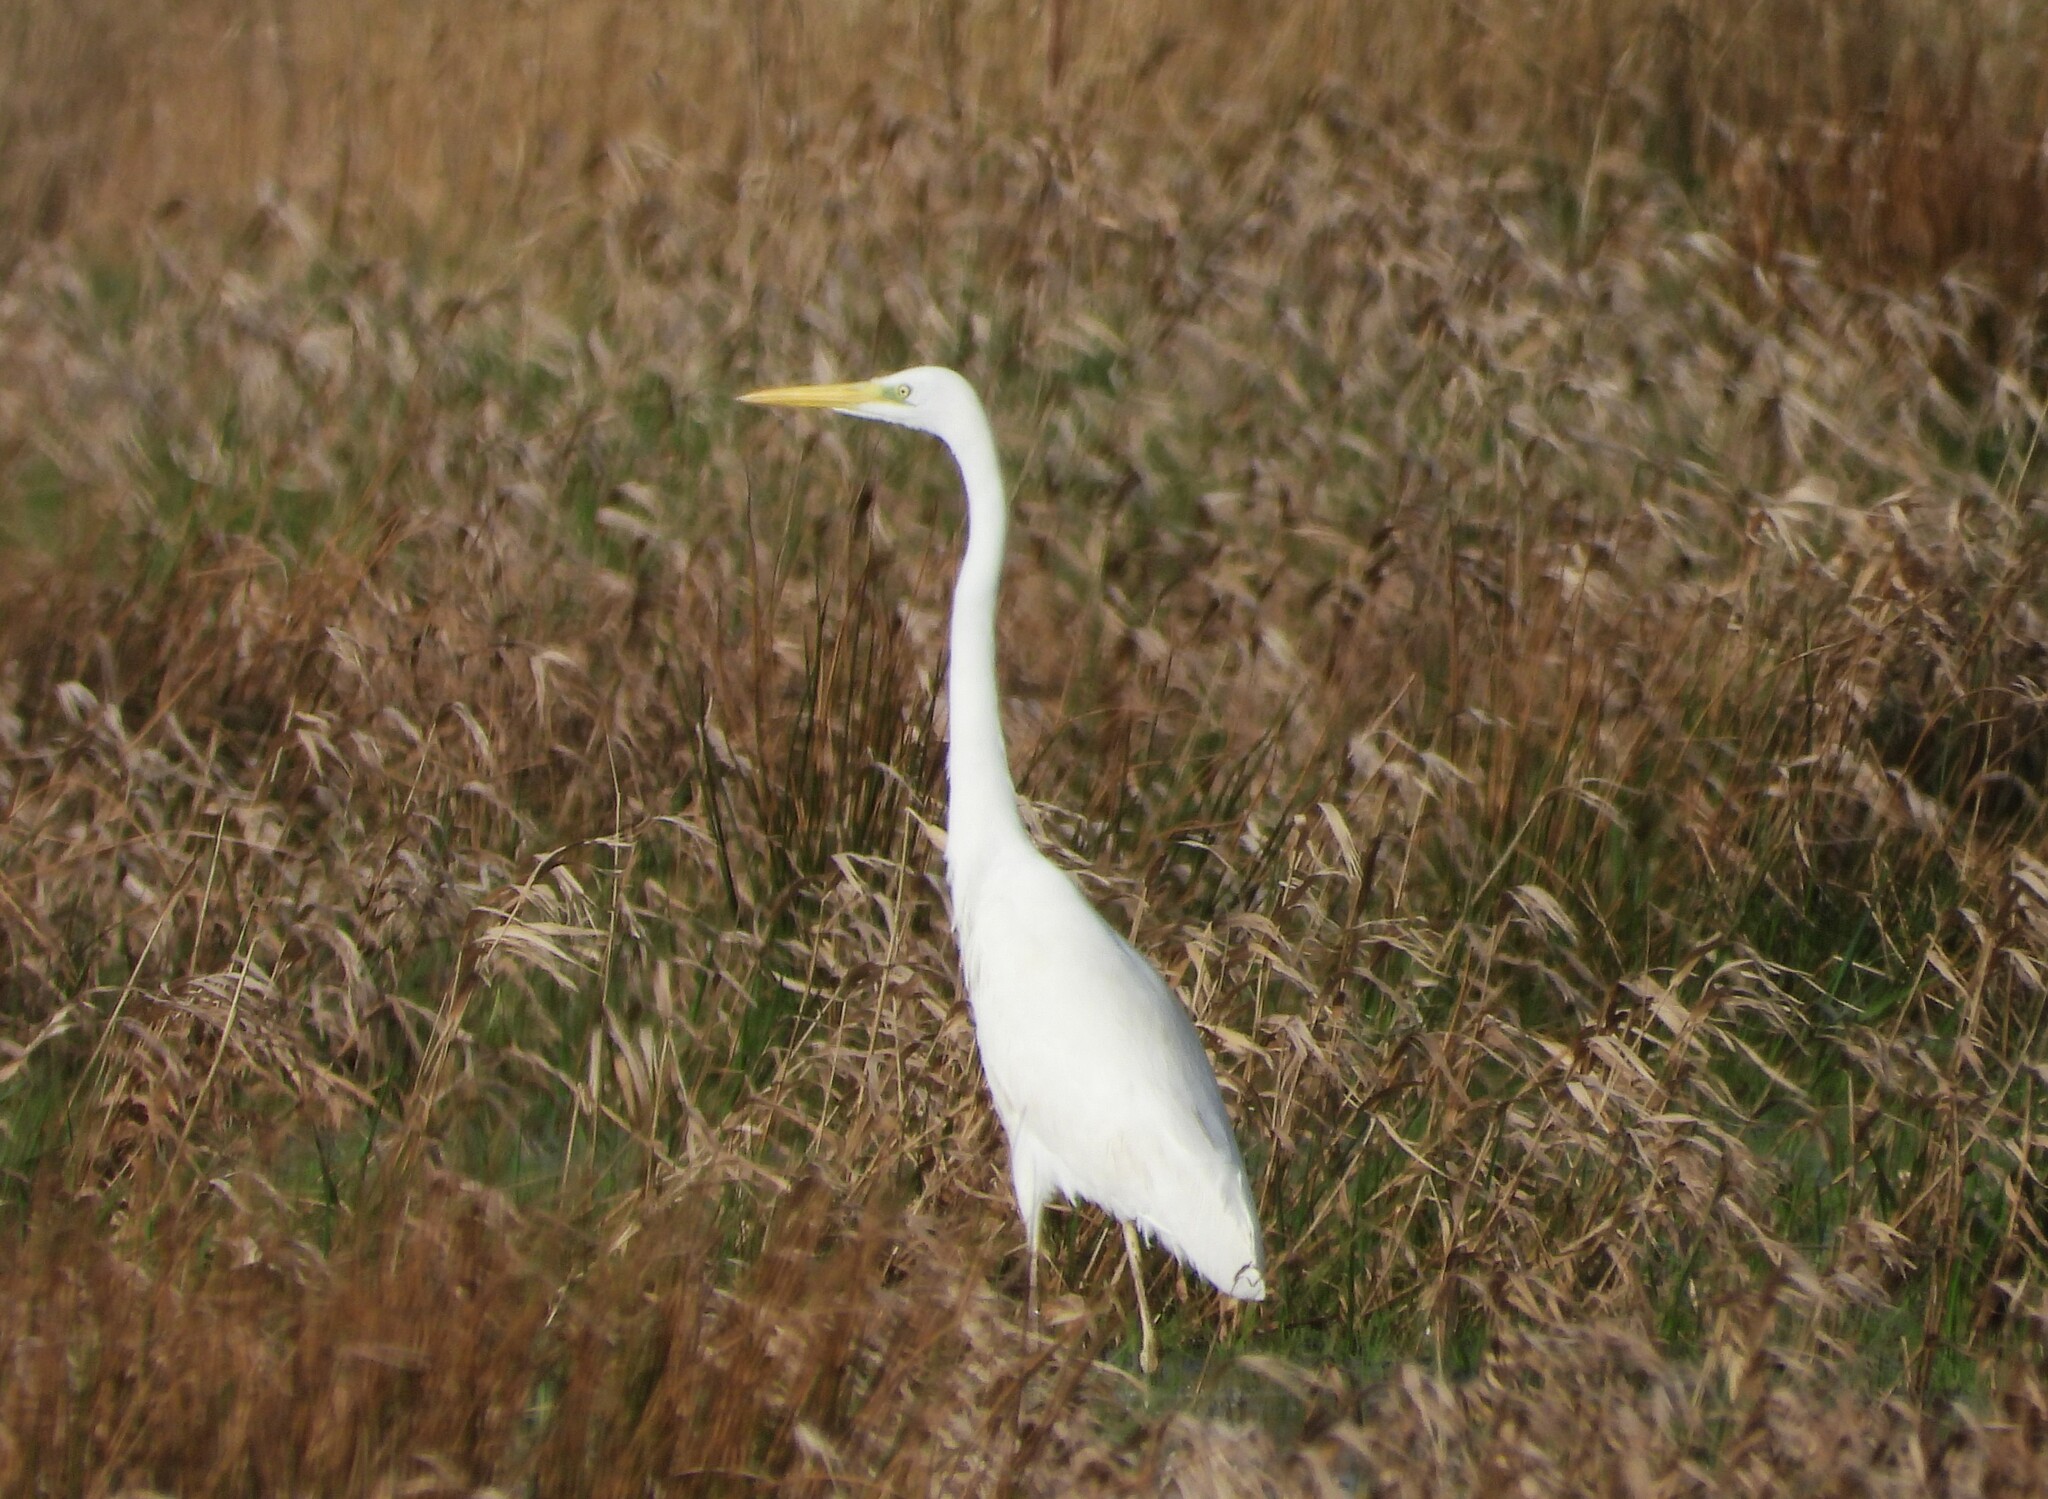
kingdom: Animalia
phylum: Chordata
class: Aves
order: Pelecaniformes
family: Ardeidae
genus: Ardea
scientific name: Ardea alba
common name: Great egret
